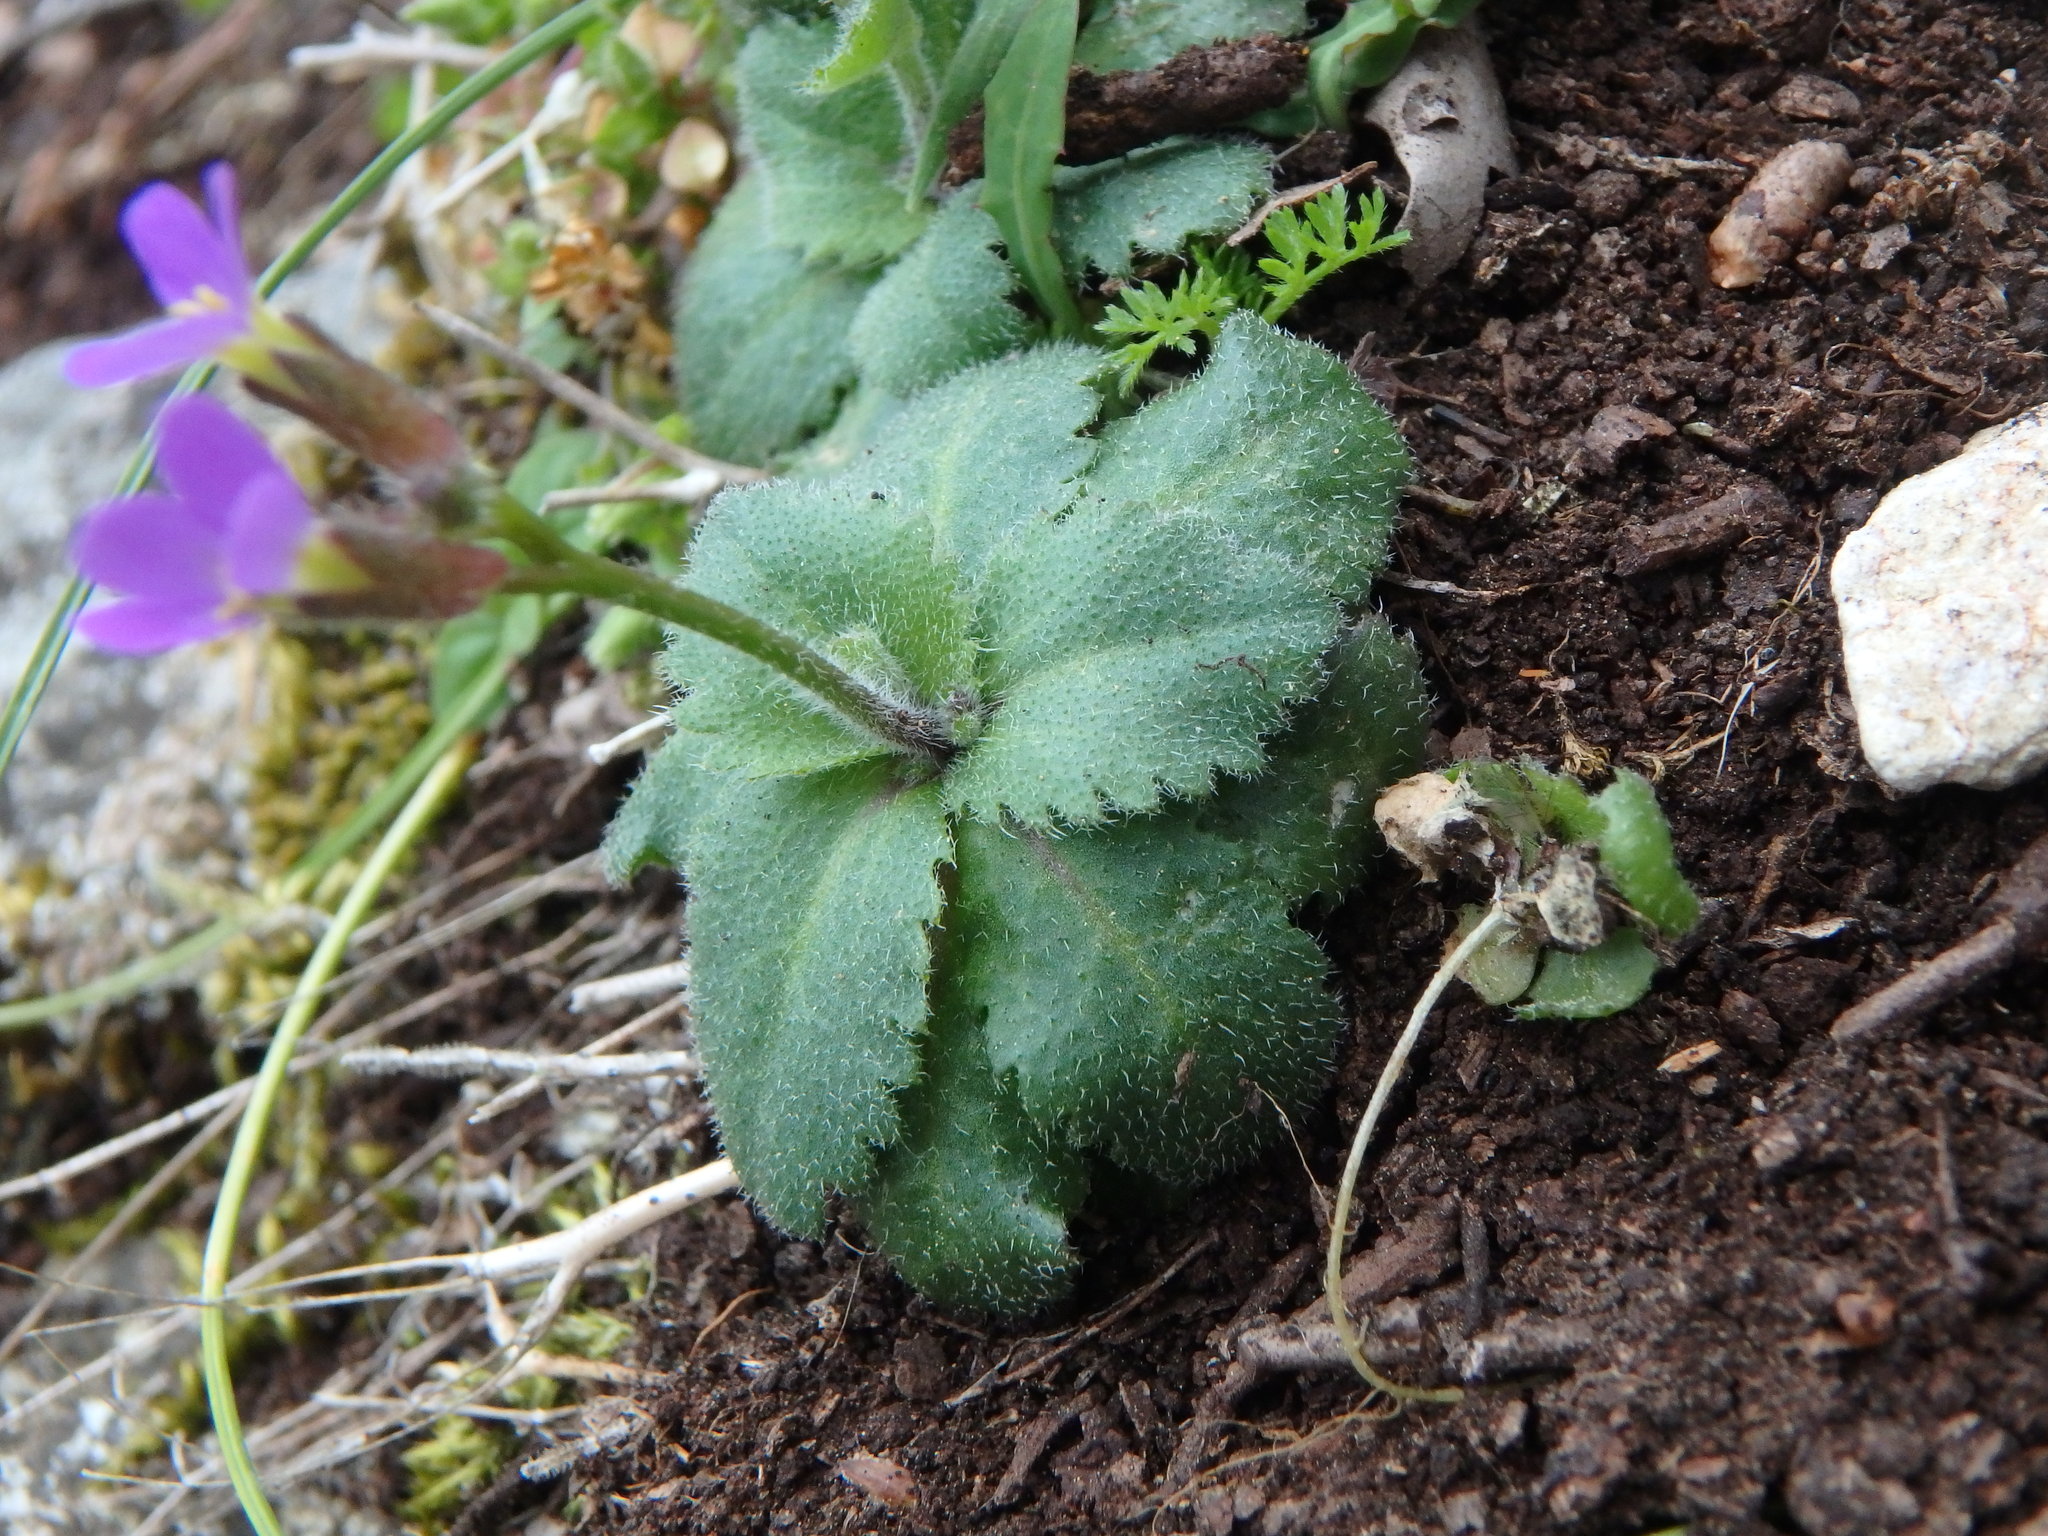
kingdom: Plantae
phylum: Tracheophyta
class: Magnoliopsida
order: Brassicales
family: Brassicaceae
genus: Arabis
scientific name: Arabis verna
